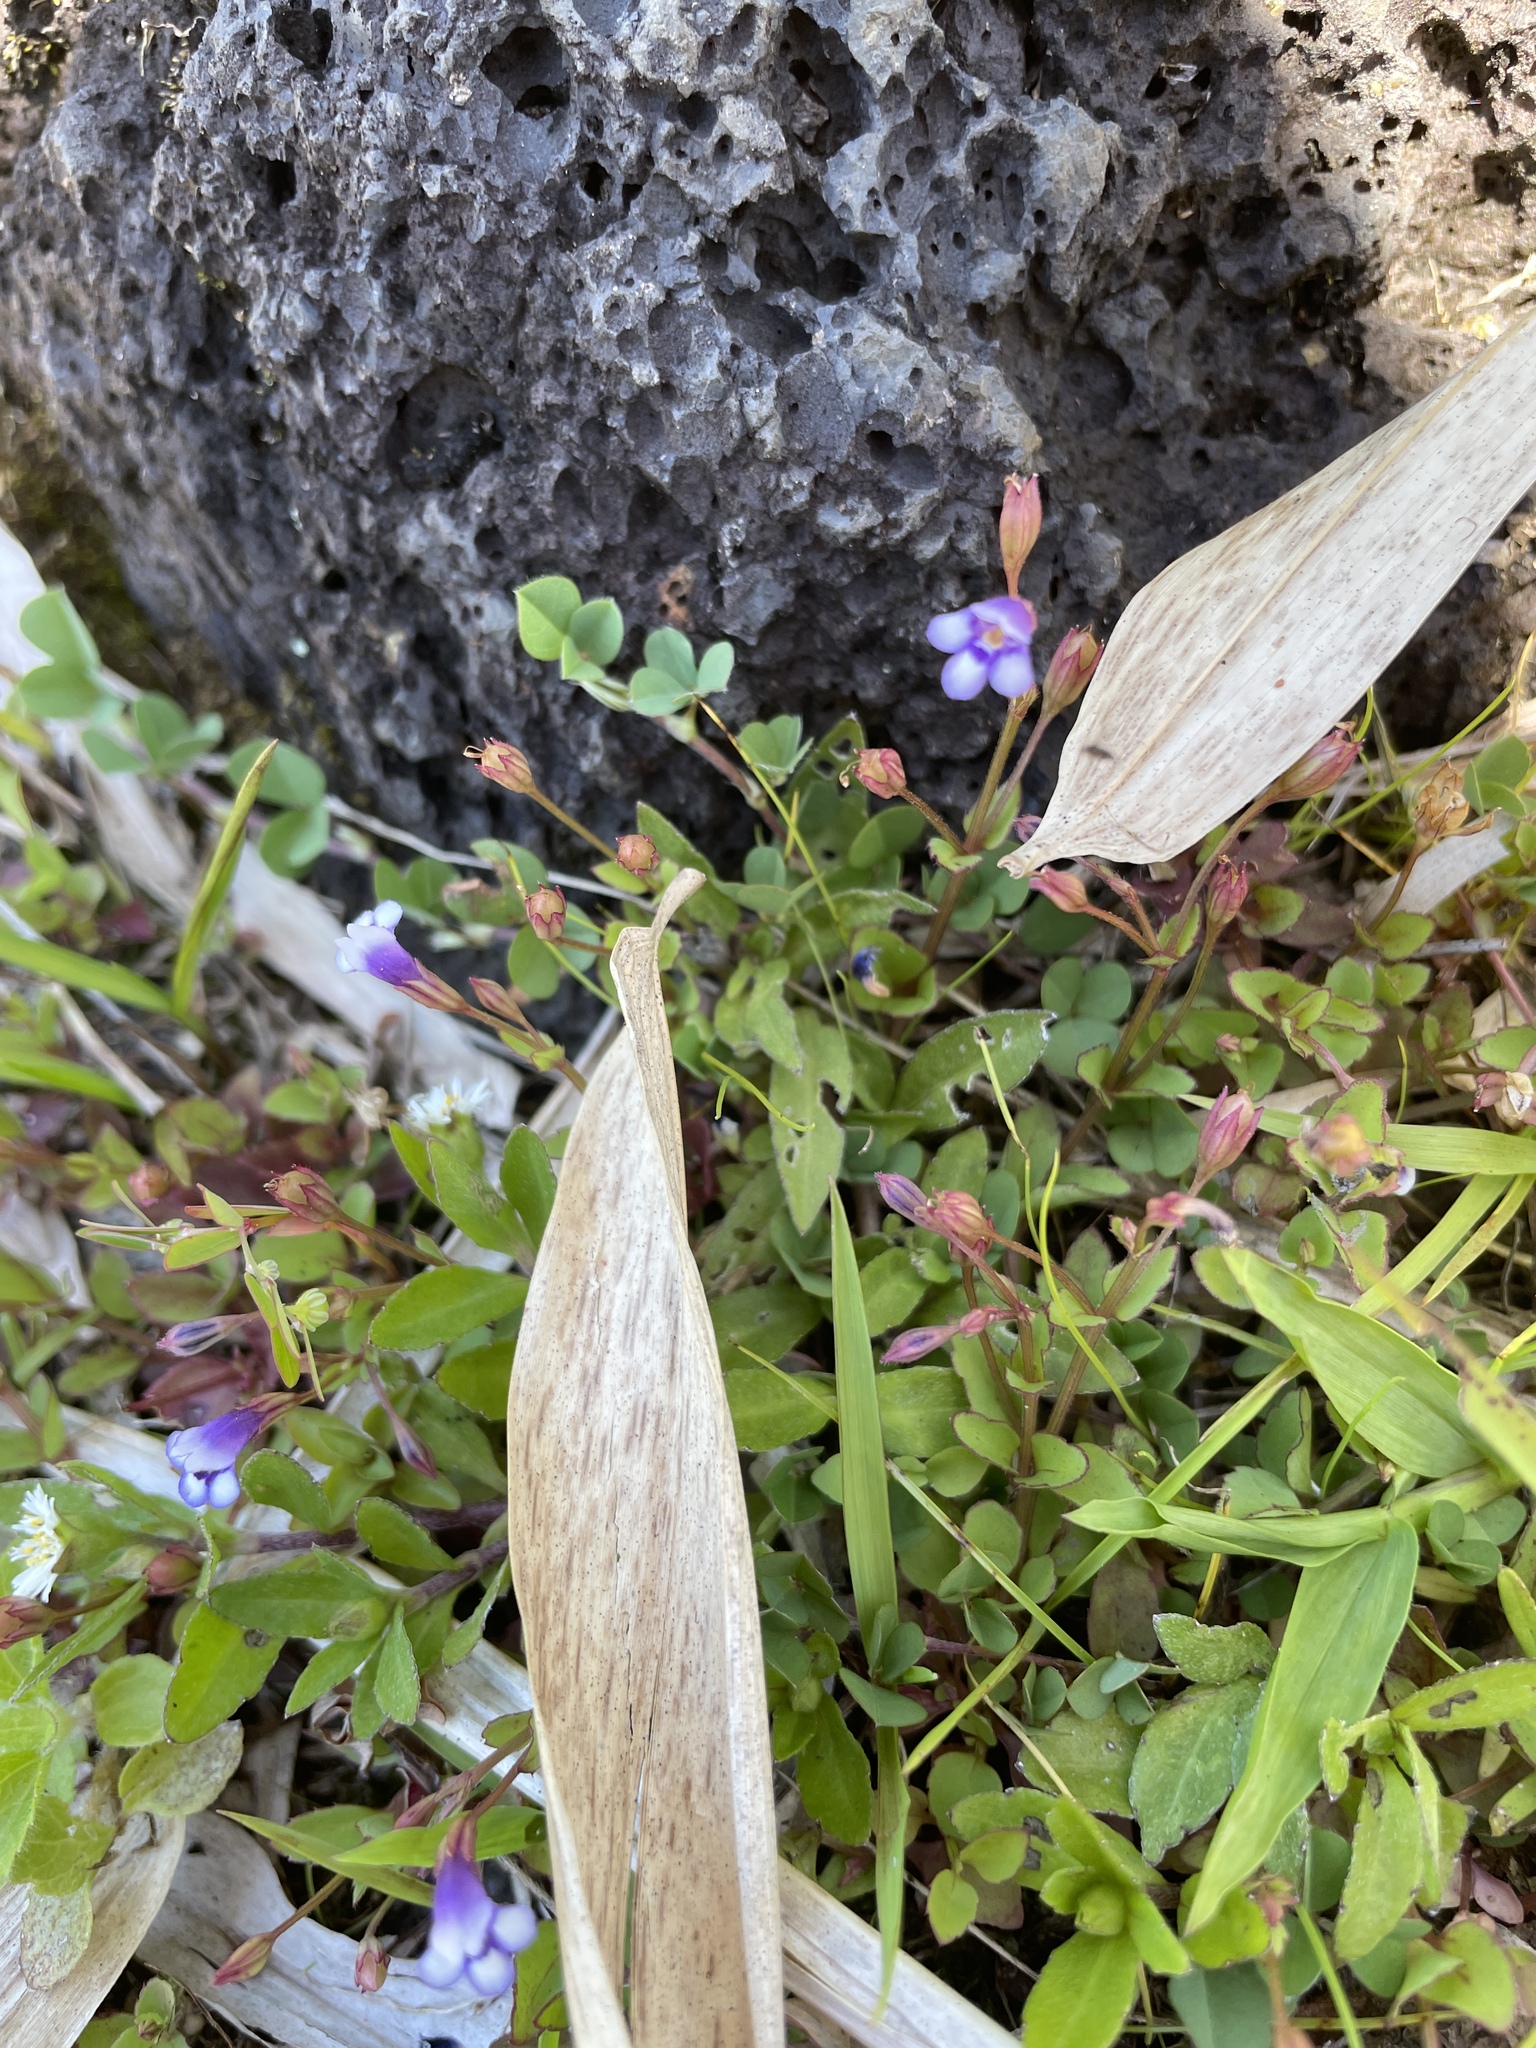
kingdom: Plantae
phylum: Tracheophyta
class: Magnoliopsida
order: Lamiales
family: Linderniaceae
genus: Torenia
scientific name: Torenia crustacea
